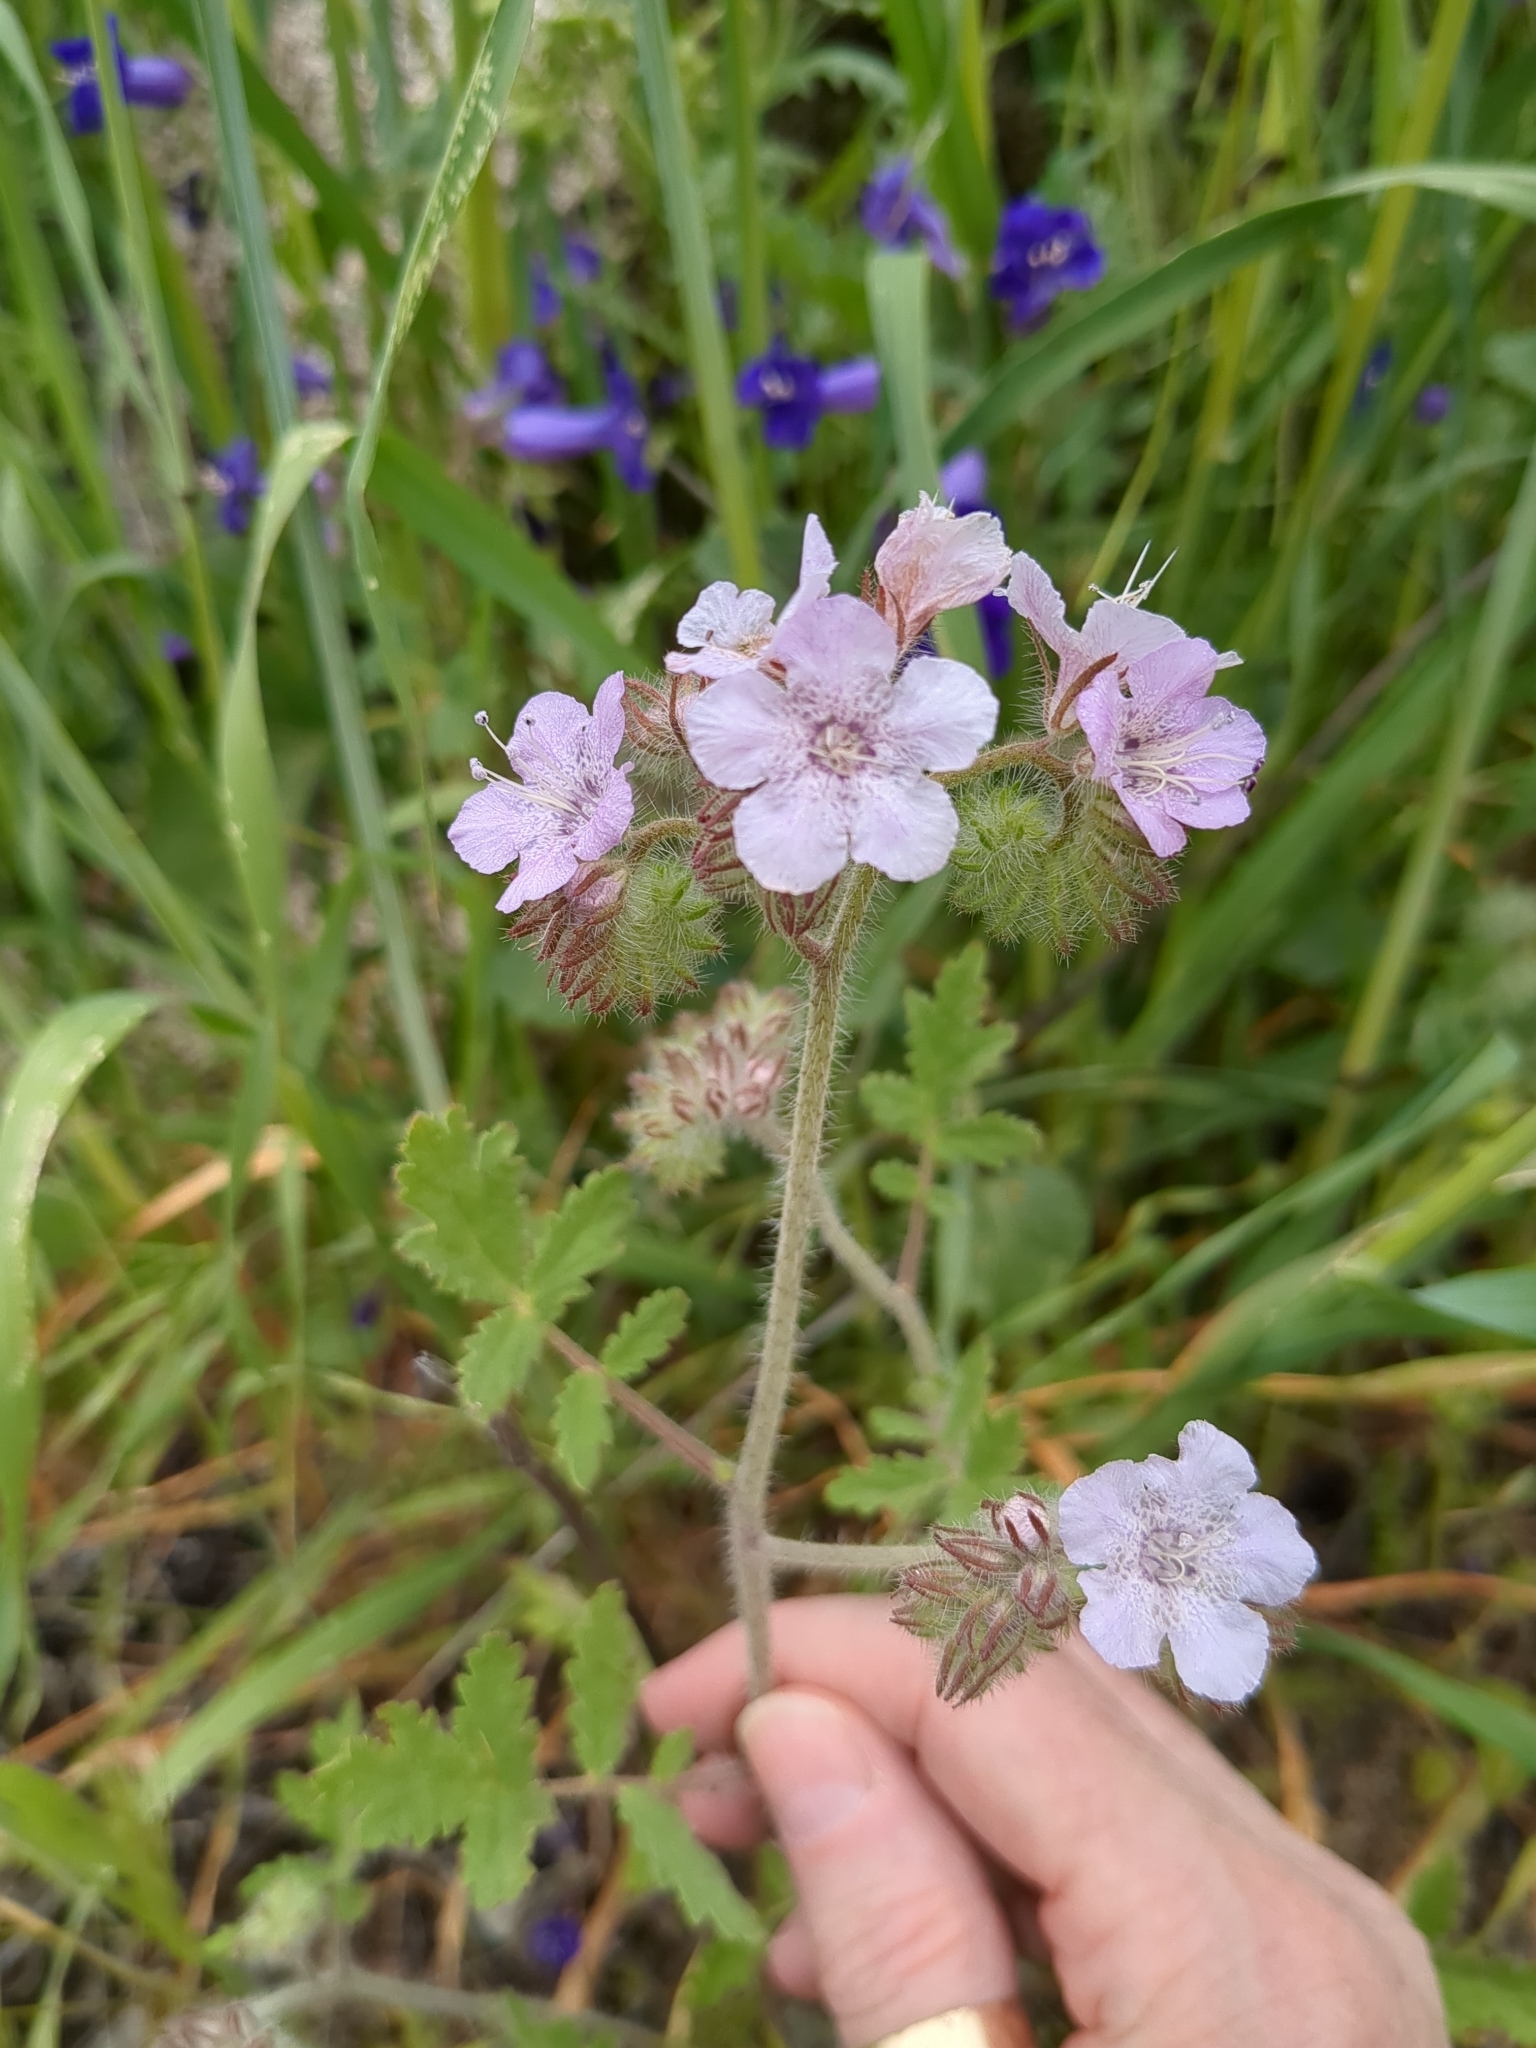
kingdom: Plantae
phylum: Tracheophyta
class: Magnoliopsida
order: Boraginales
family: Hydrophyllaceae
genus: Phacelia
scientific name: Phacelia cicutaria
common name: Caterpillar phacelia
